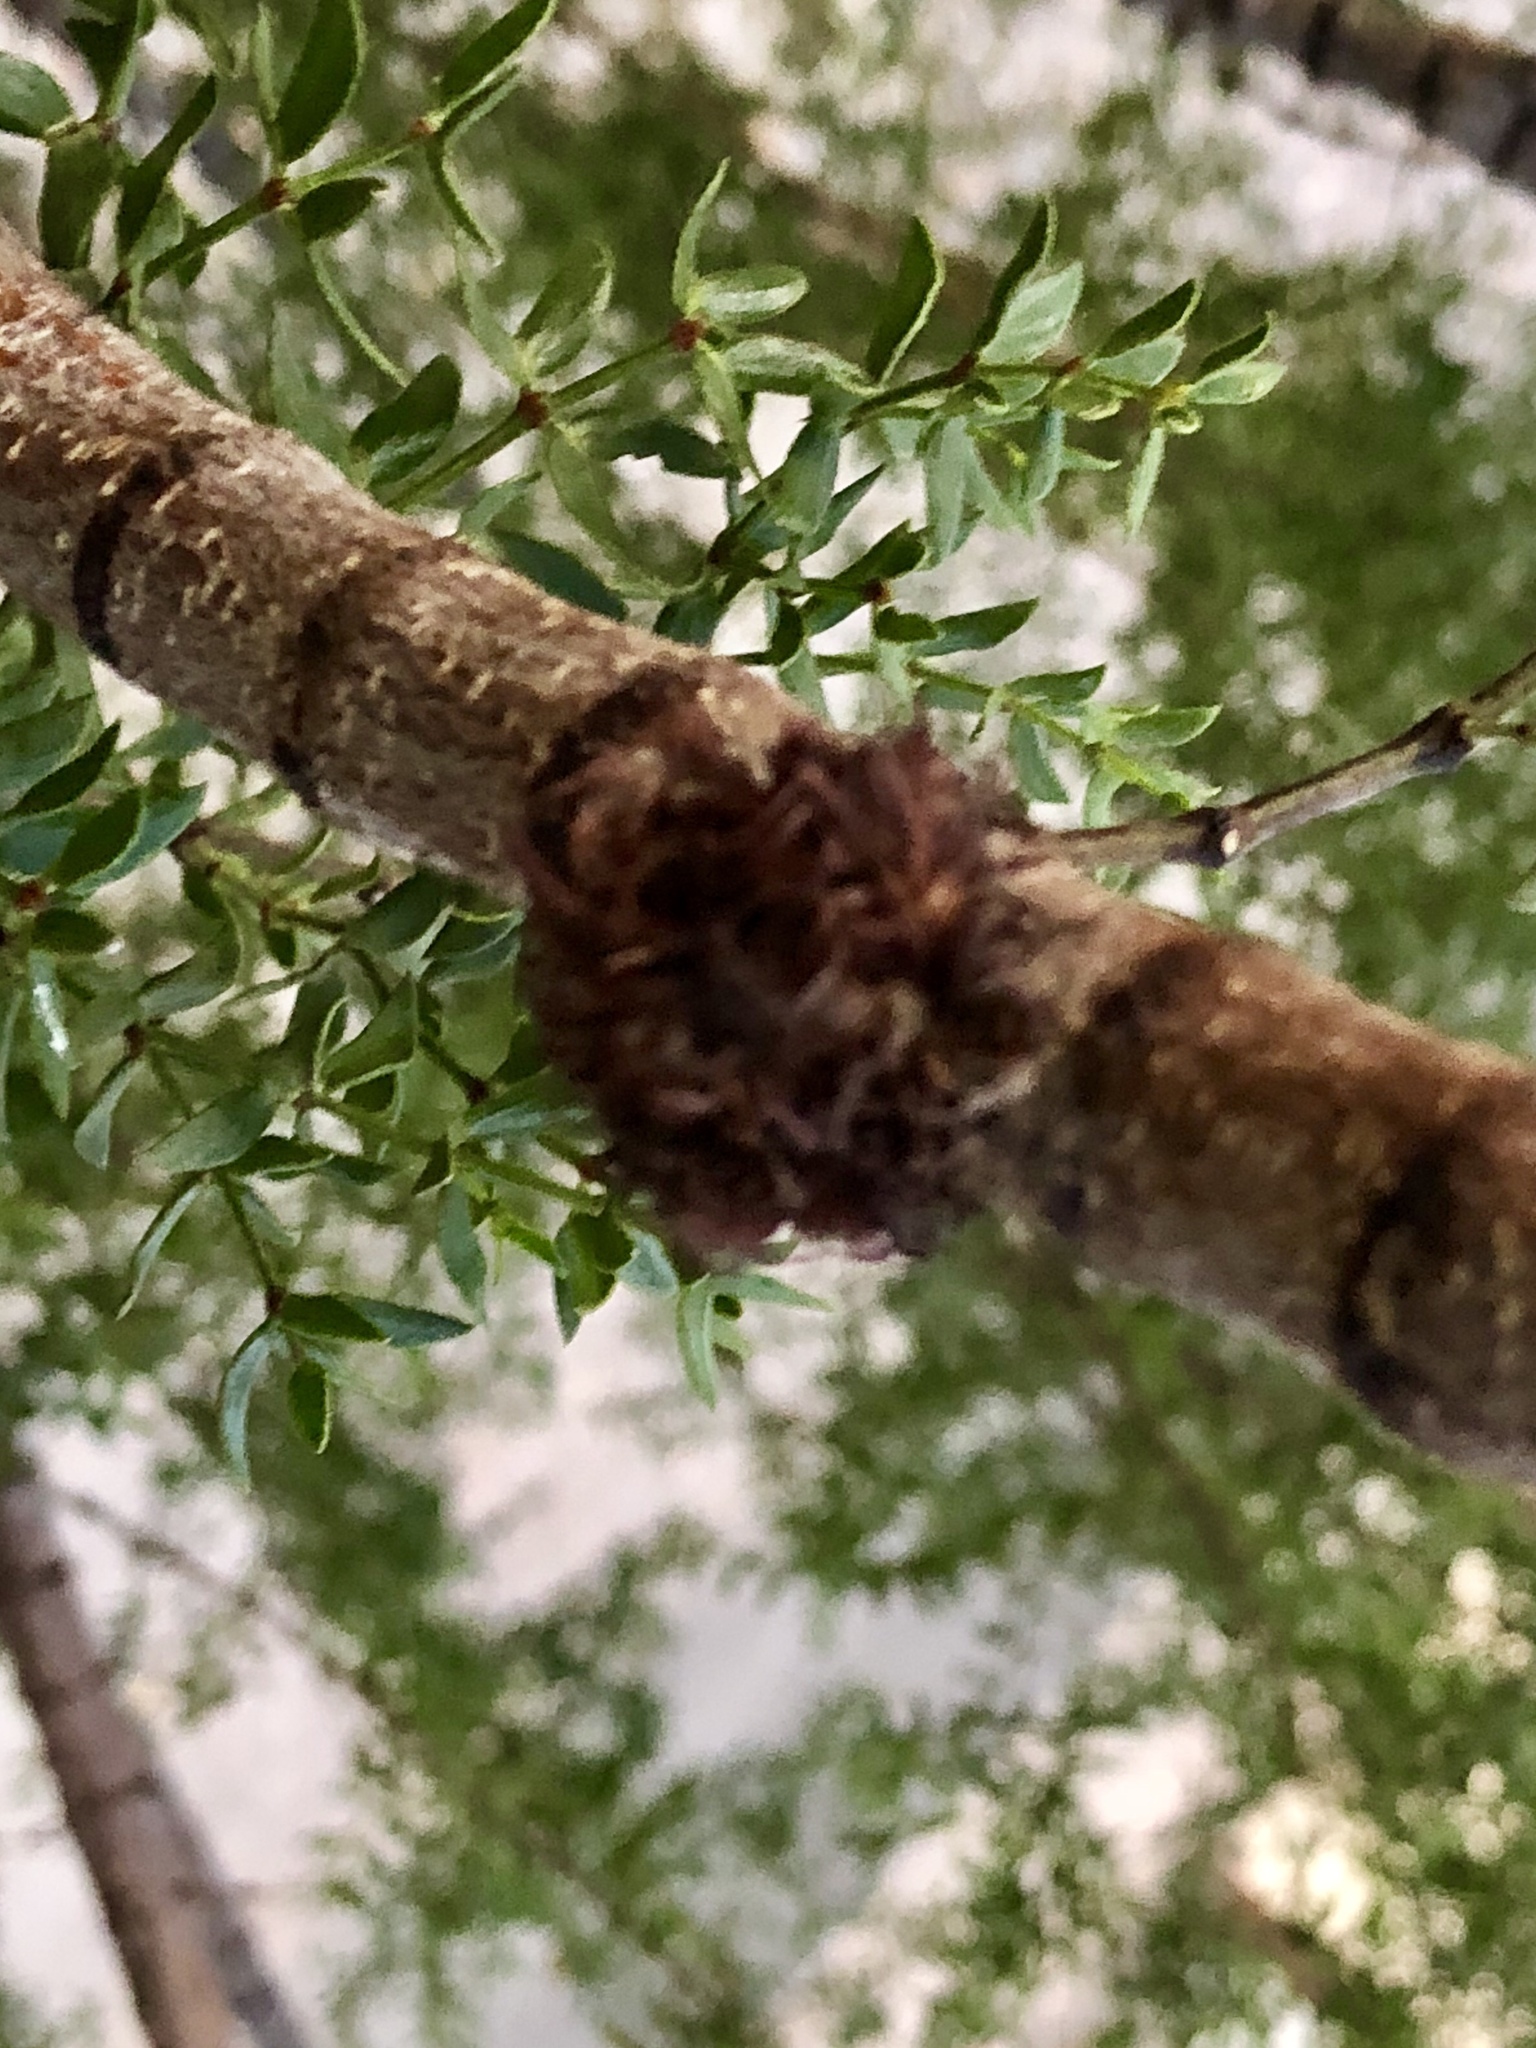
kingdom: Animalia
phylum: Arthropoda
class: Insecta
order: Diptera
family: Cecidomyiidae
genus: Asphondylia
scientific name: Asphondylia auripila
